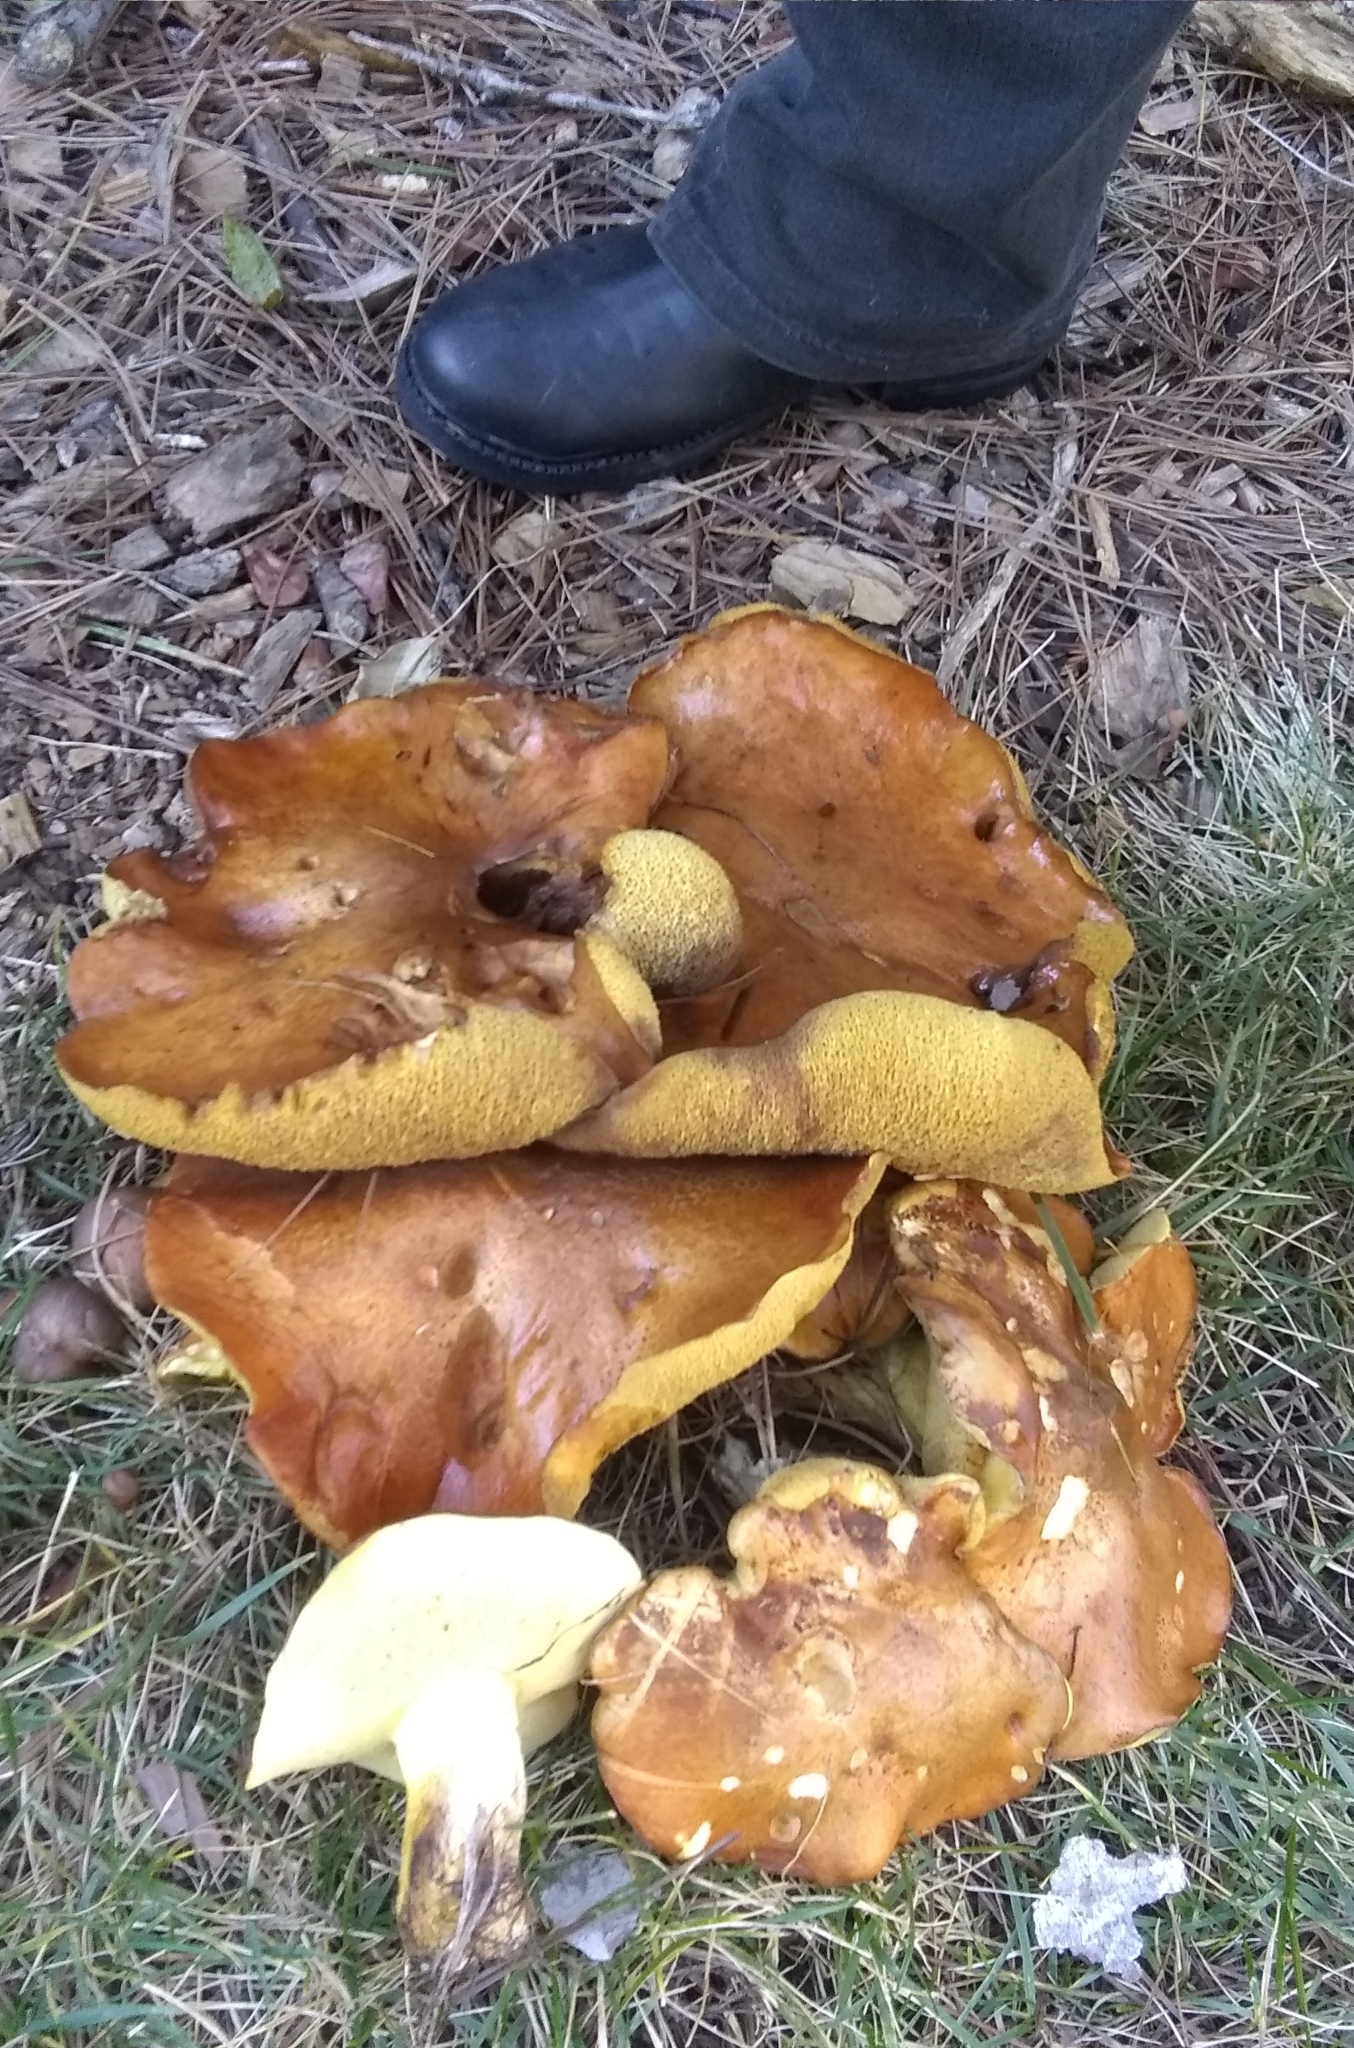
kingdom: Fungi
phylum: Basidiomycota
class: Agaricomycetes
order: Boletales
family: Suillaceae
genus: Suillus
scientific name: Suillus pungens
